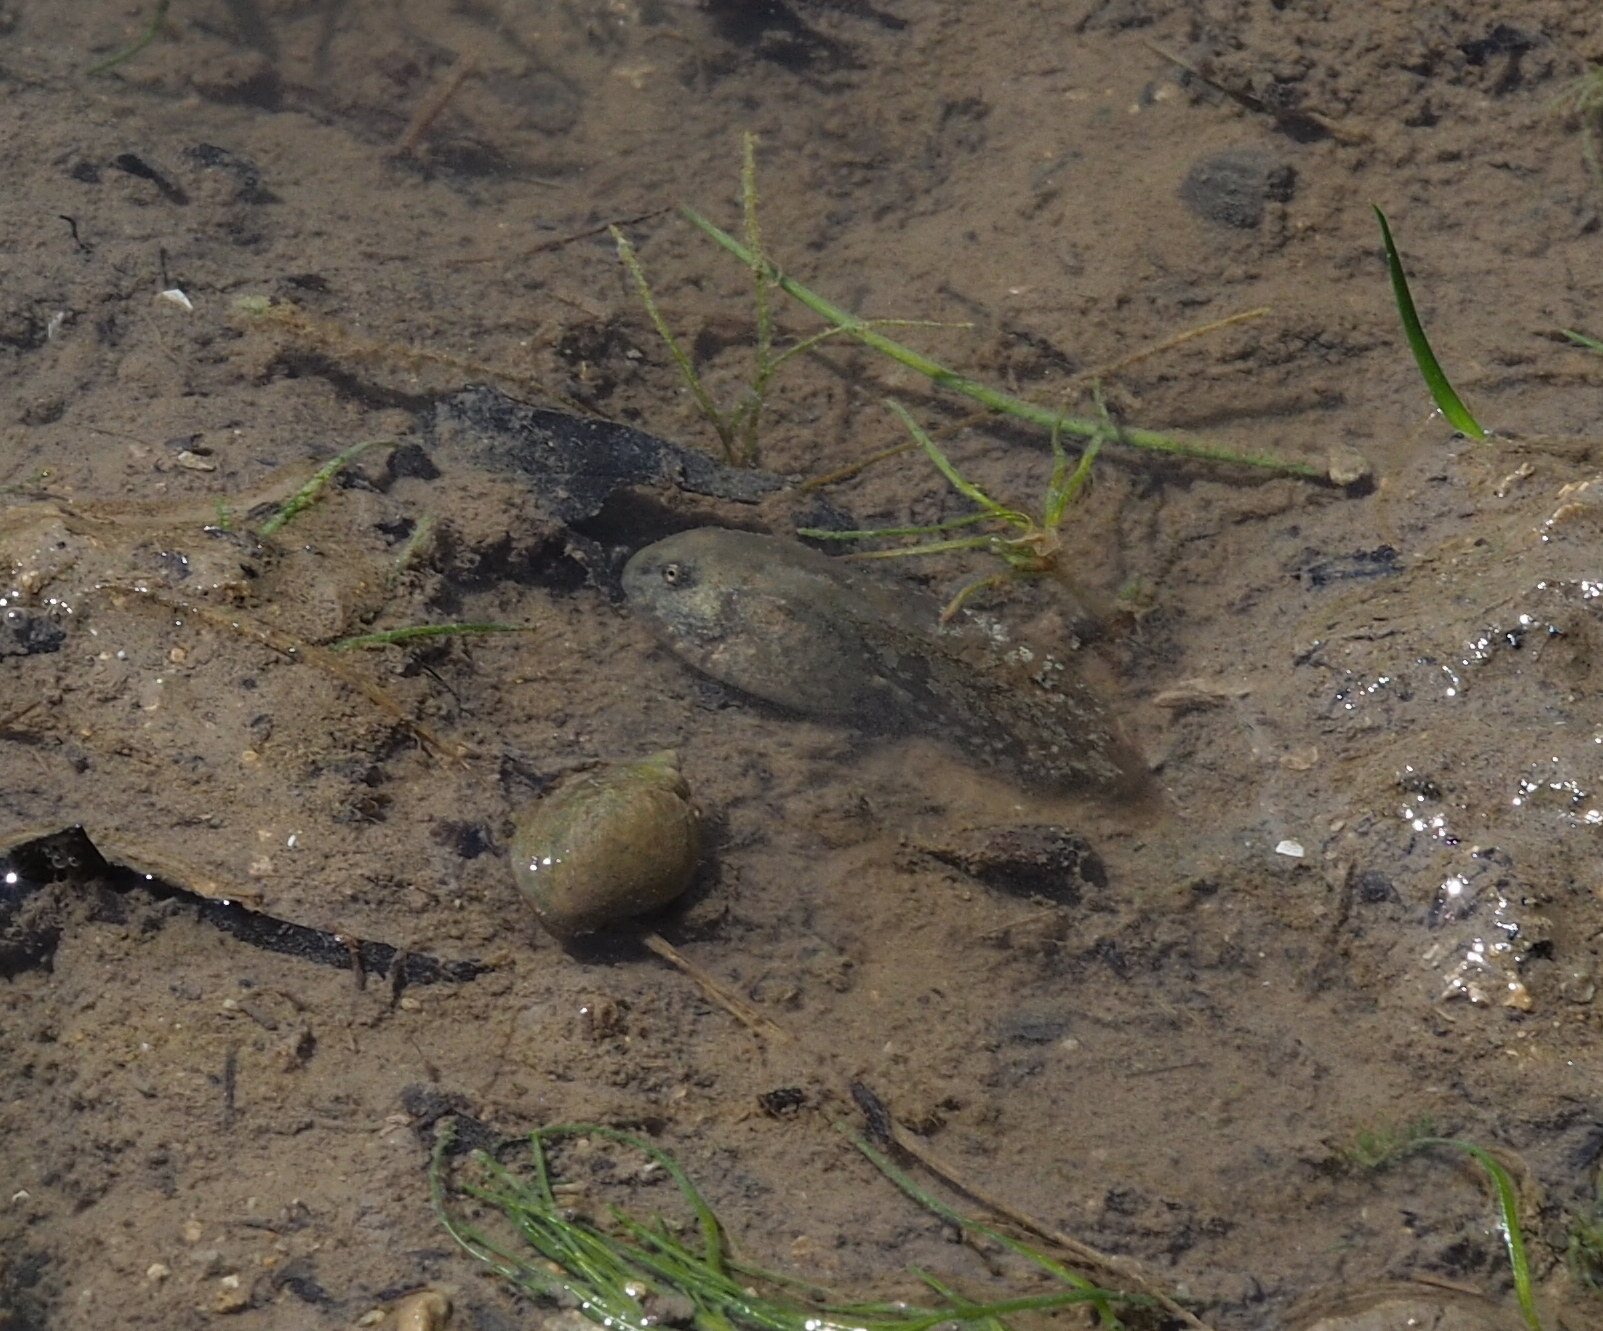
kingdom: Animalia
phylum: Chordata
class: Amphibia
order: Anura
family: Bombinatoridae
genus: Bombina
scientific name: Bombina variegata
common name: Yellow-bellied toad
